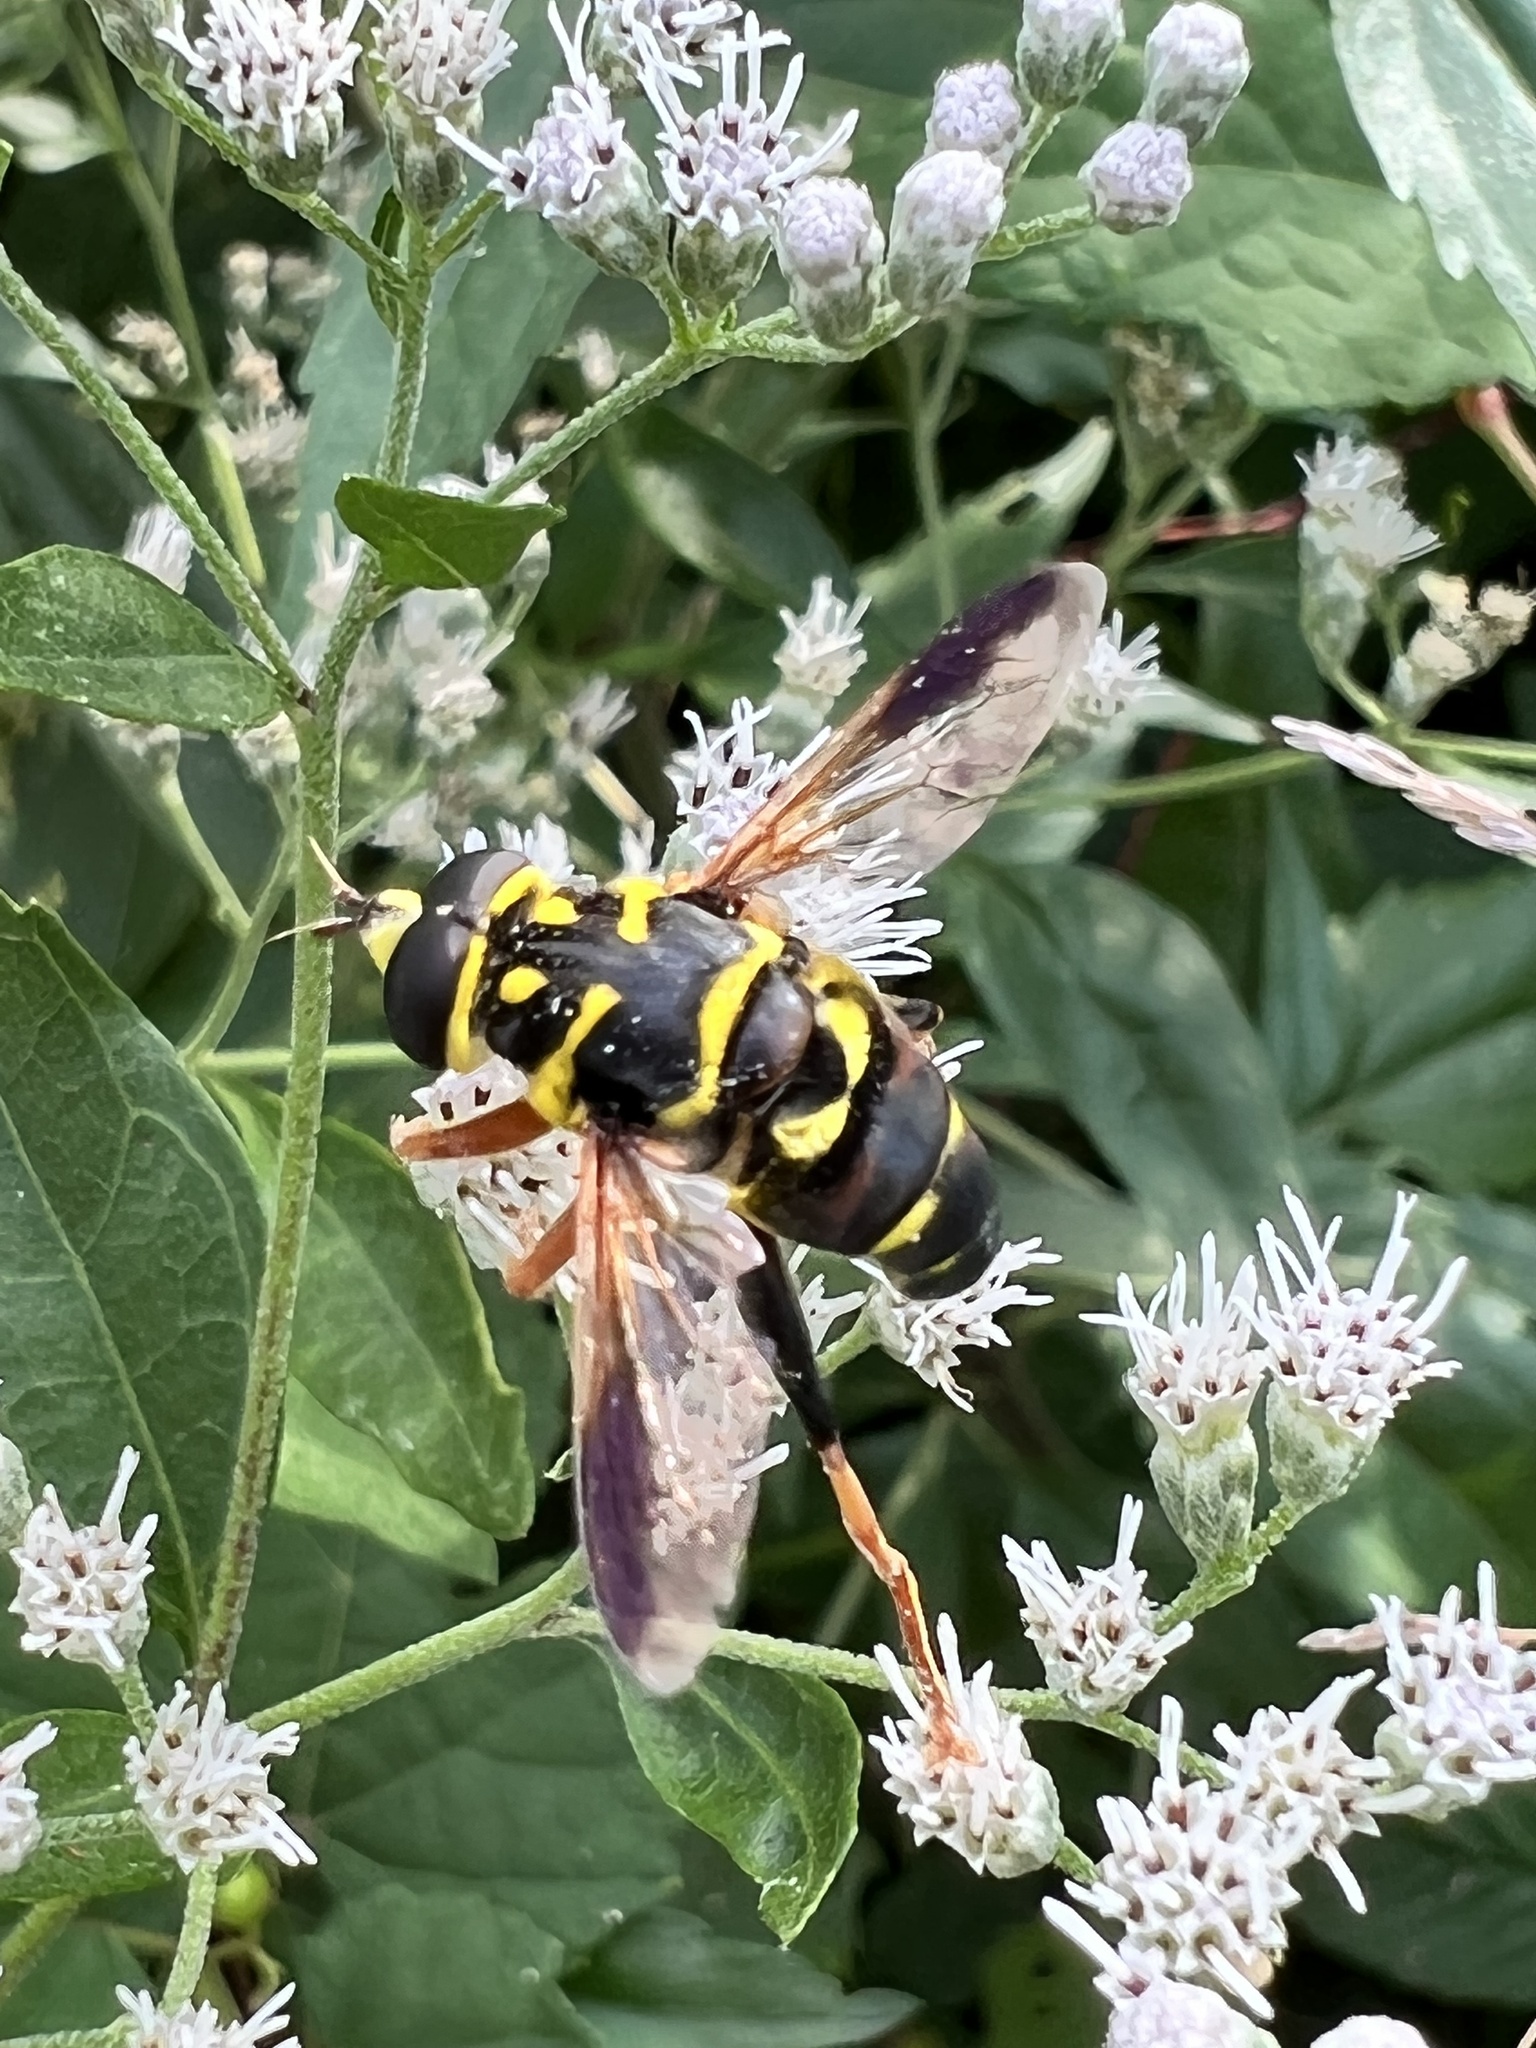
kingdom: Animalia
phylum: Arthropoda
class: Insecta
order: Diptera
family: Syrphidae
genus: Meromacrus
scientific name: Meromacrus acutus
